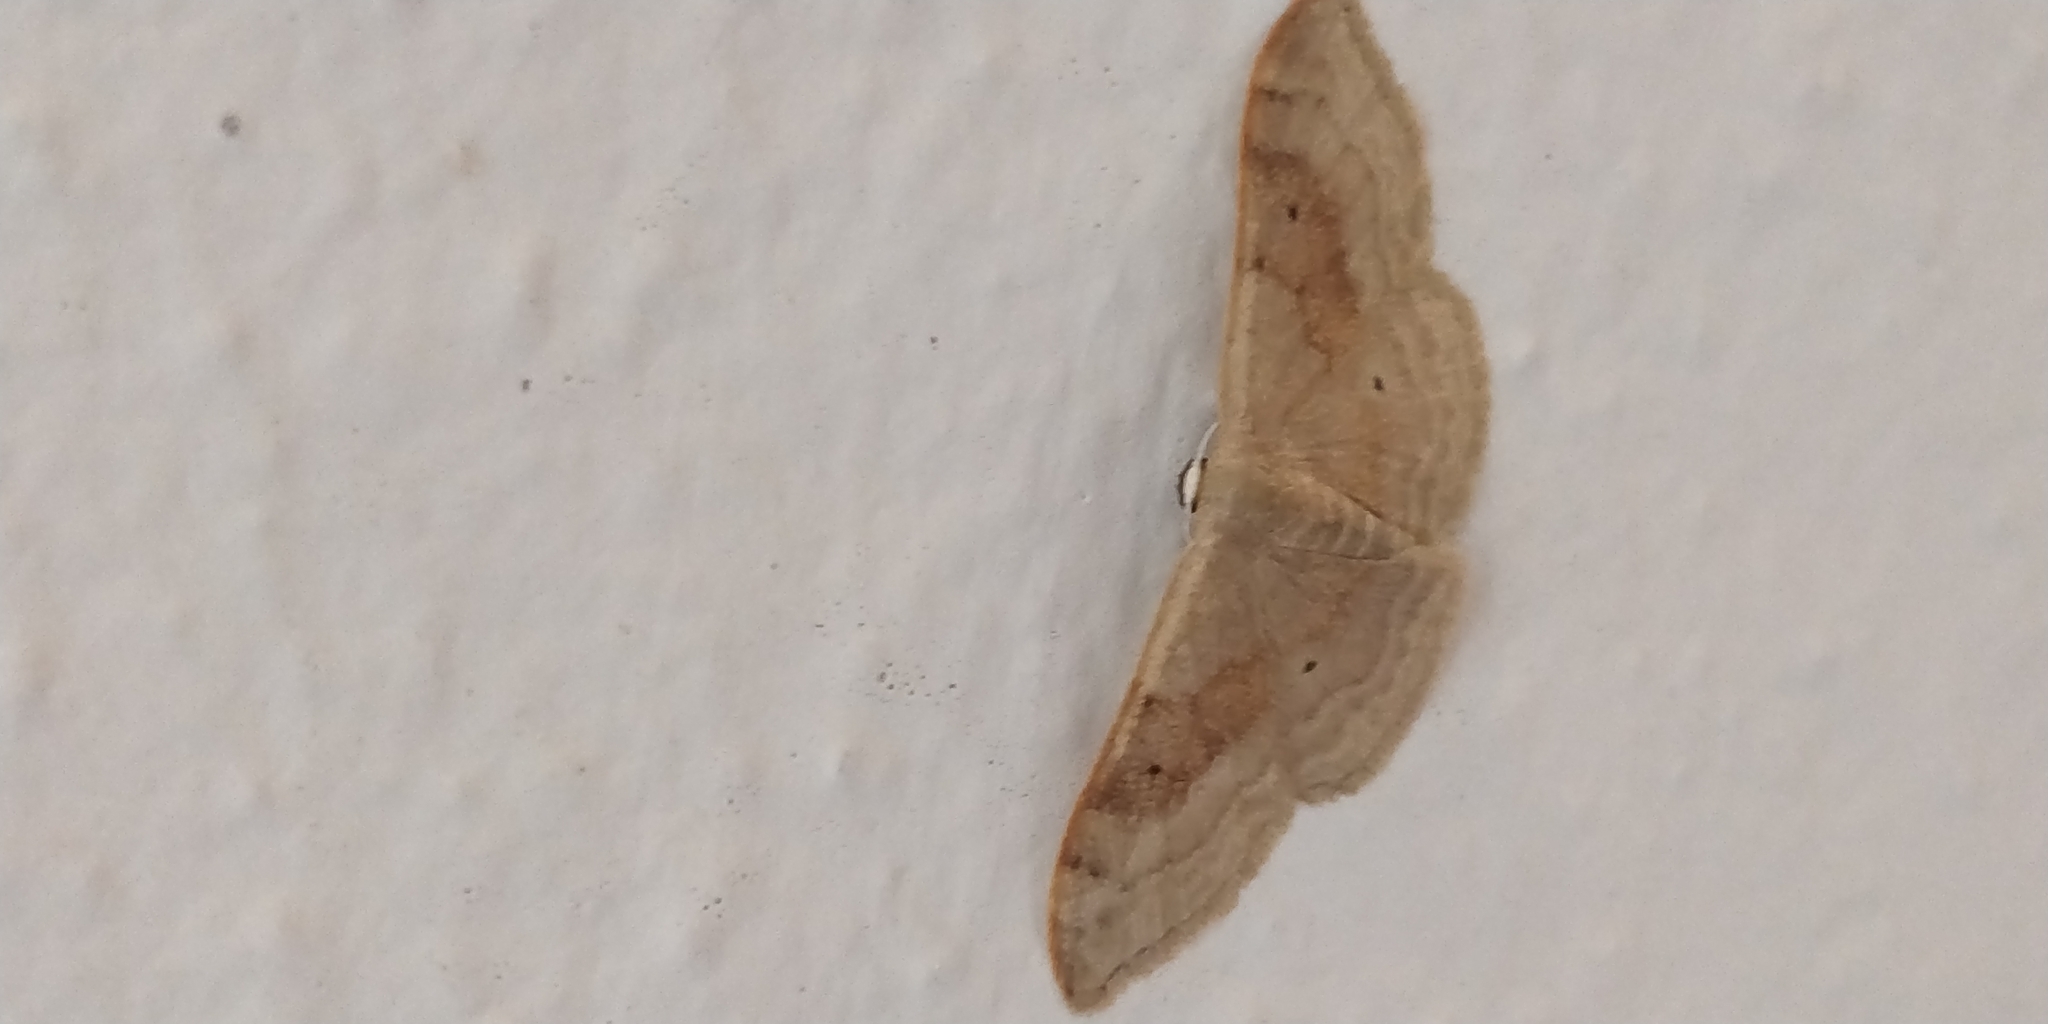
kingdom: Animalia
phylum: Arthropoda
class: Insecta
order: Lepidoptera
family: Geometridae
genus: Idaea
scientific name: Idaea degeneraria
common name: Portland ribbon wave
